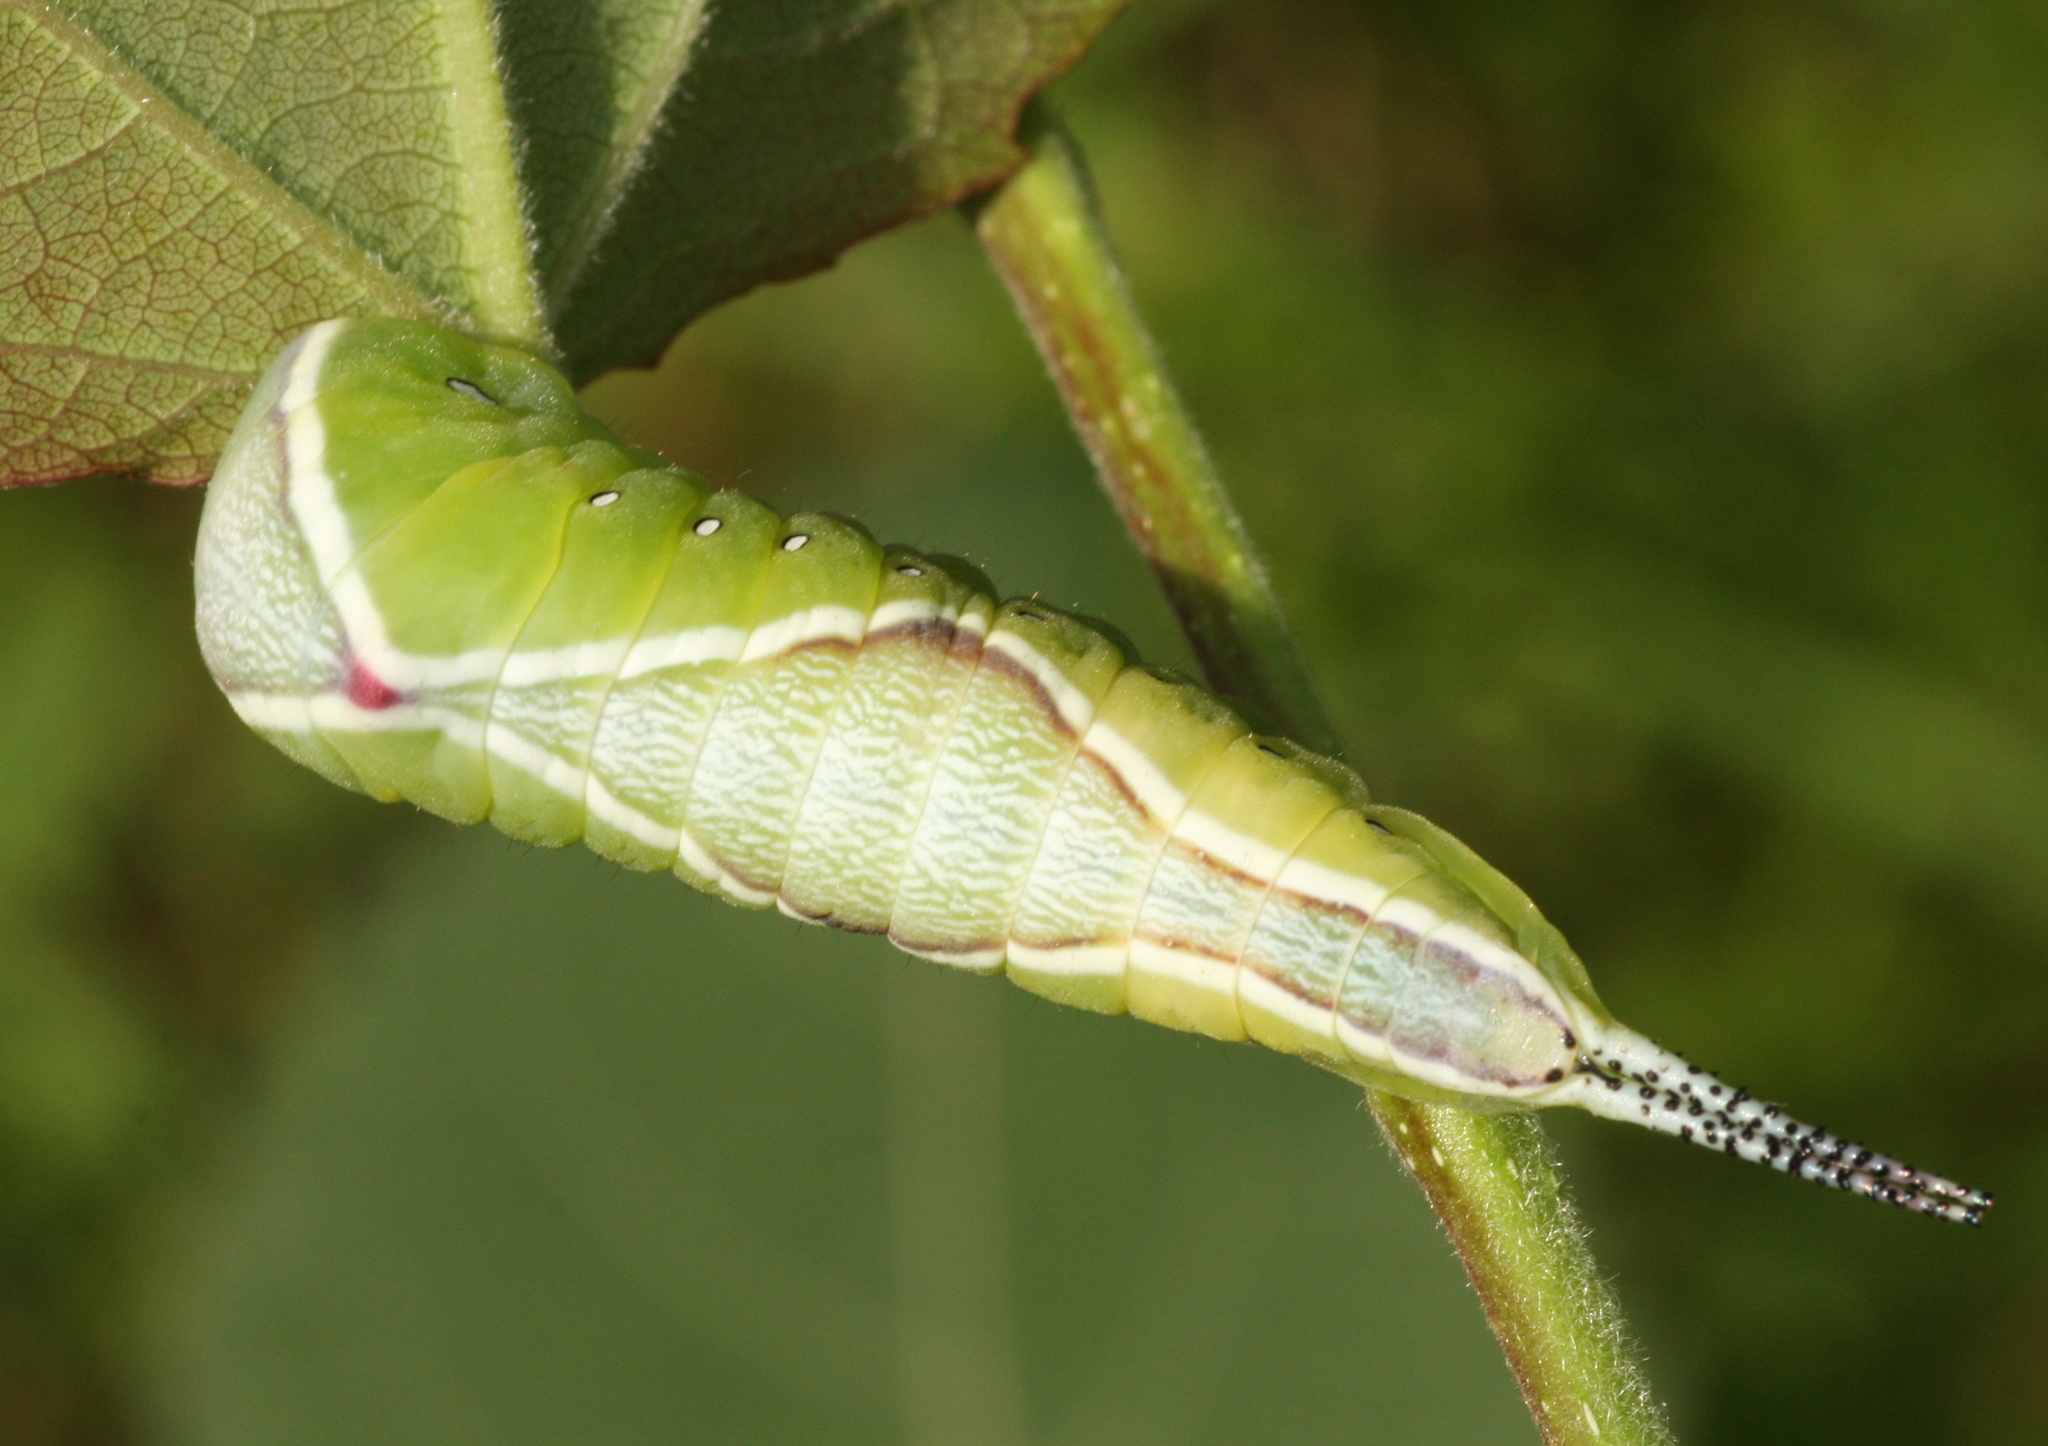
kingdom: Animalia
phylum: Arthropoda
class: Insecta
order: Lepidoptera
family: Notodontidae
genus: Cerura
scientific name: Cerura vinula
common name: Puss moth
